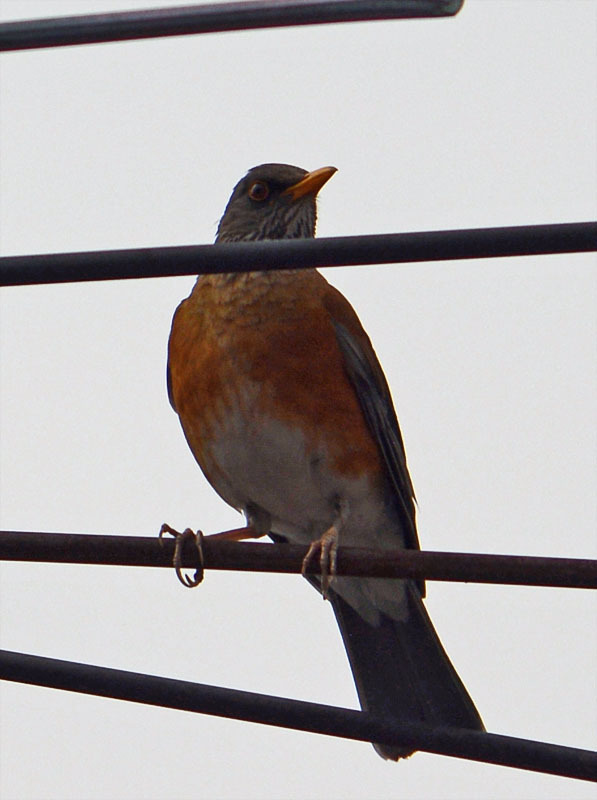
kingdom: Animalia
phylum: Chordata
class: Aves
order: Passeriformes
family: Turdidae
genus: Turdus
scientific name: Turdus rufopalliatus
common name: Rufous-backed robin
